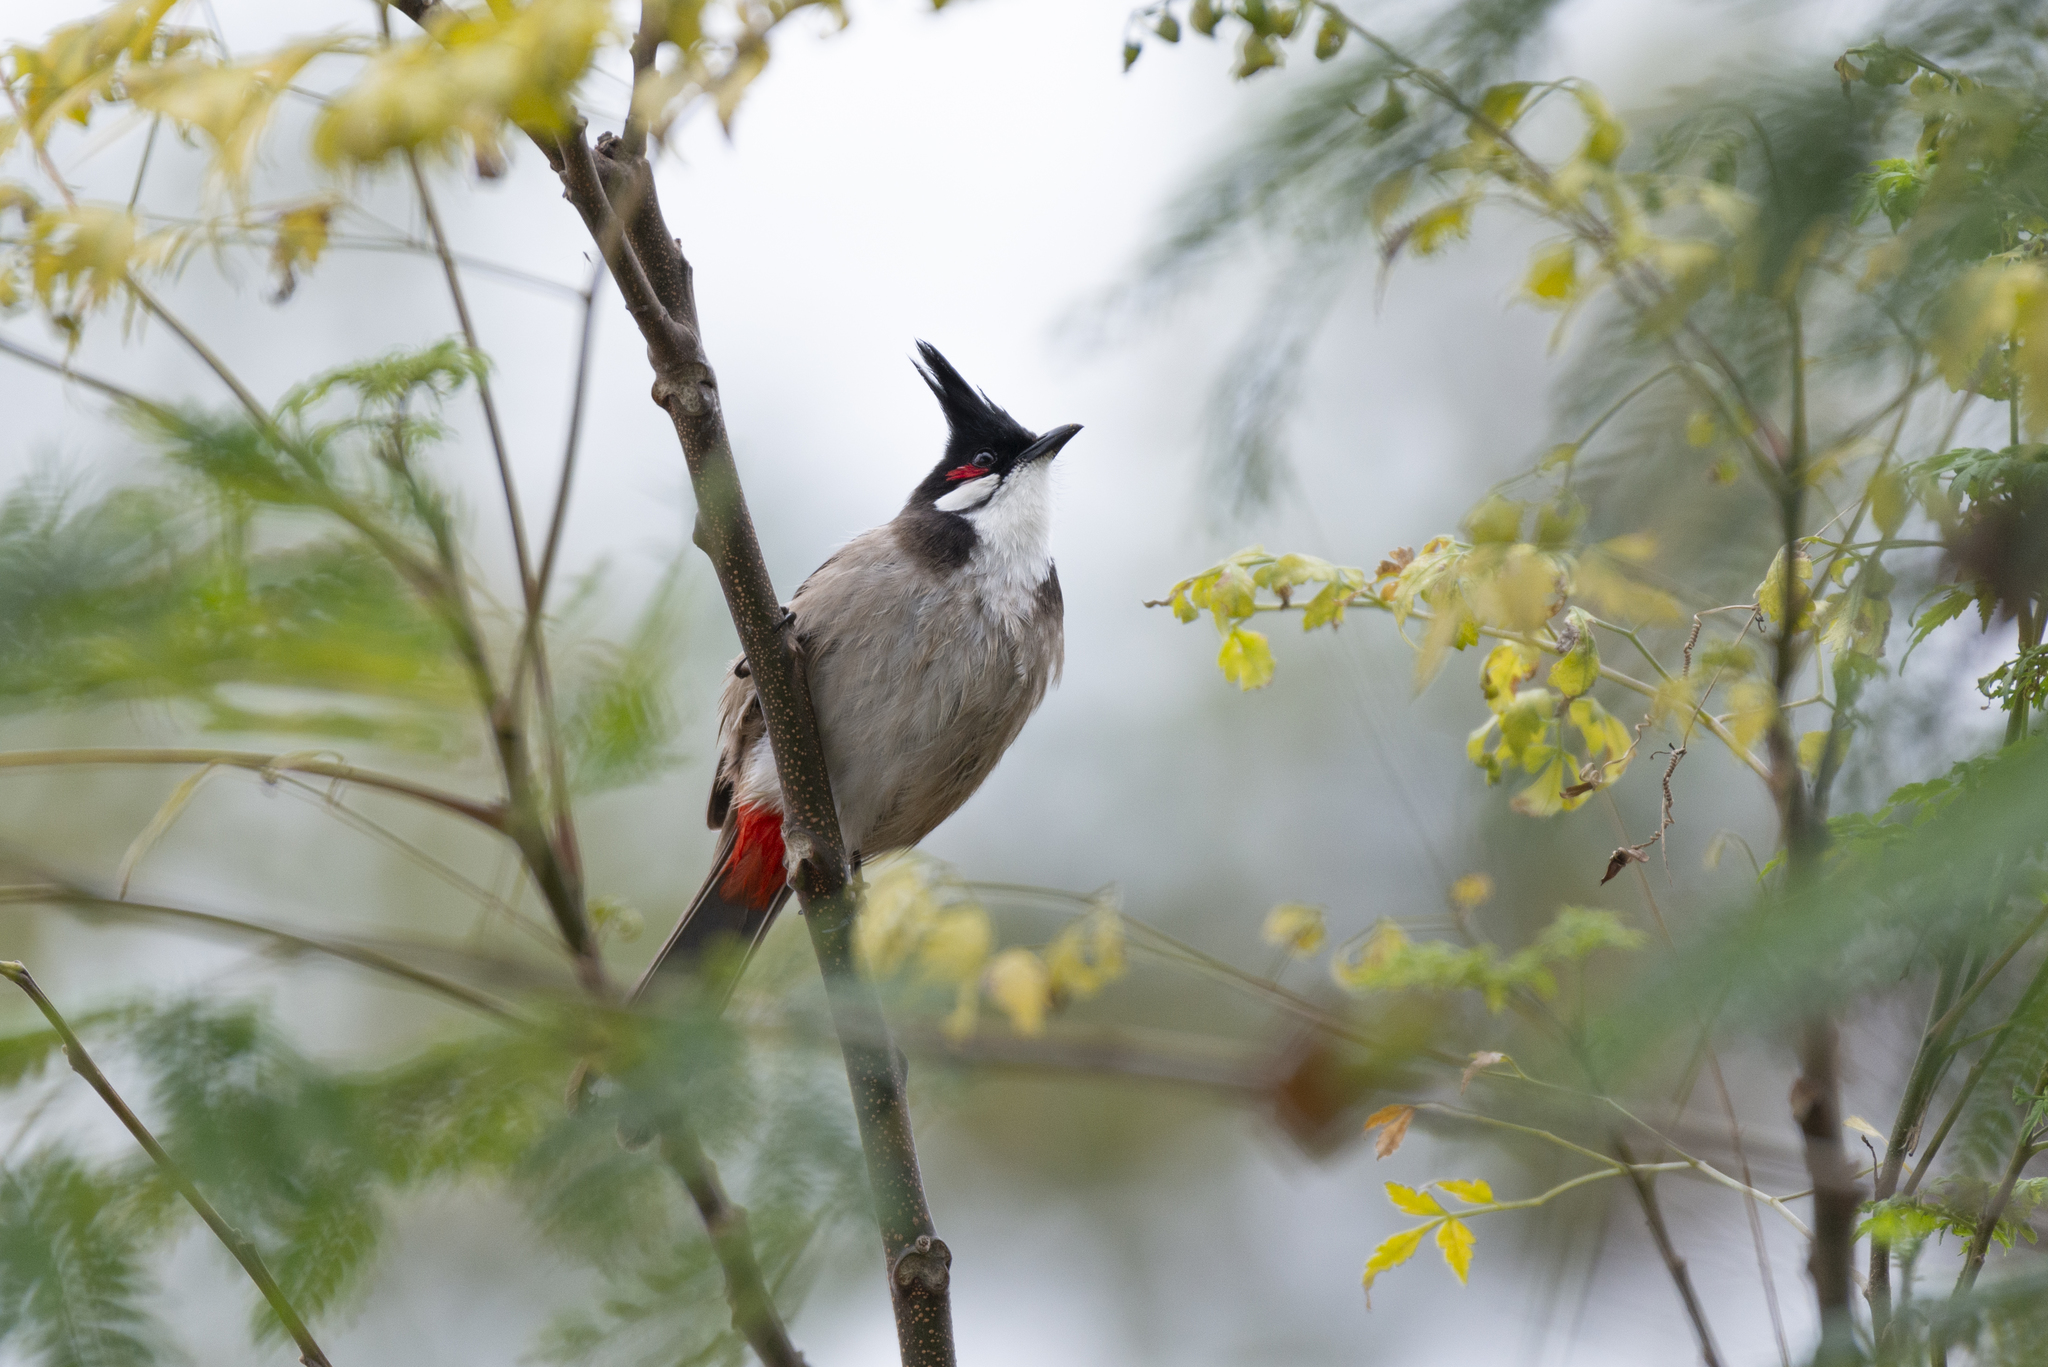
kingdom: Animalia
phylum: Chordata
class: Aves
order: Passeriformes
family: Pycnonotidae
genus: Pycnonotus
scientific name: Pycnonotus jocosus
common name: Red-whiskered bulbul
